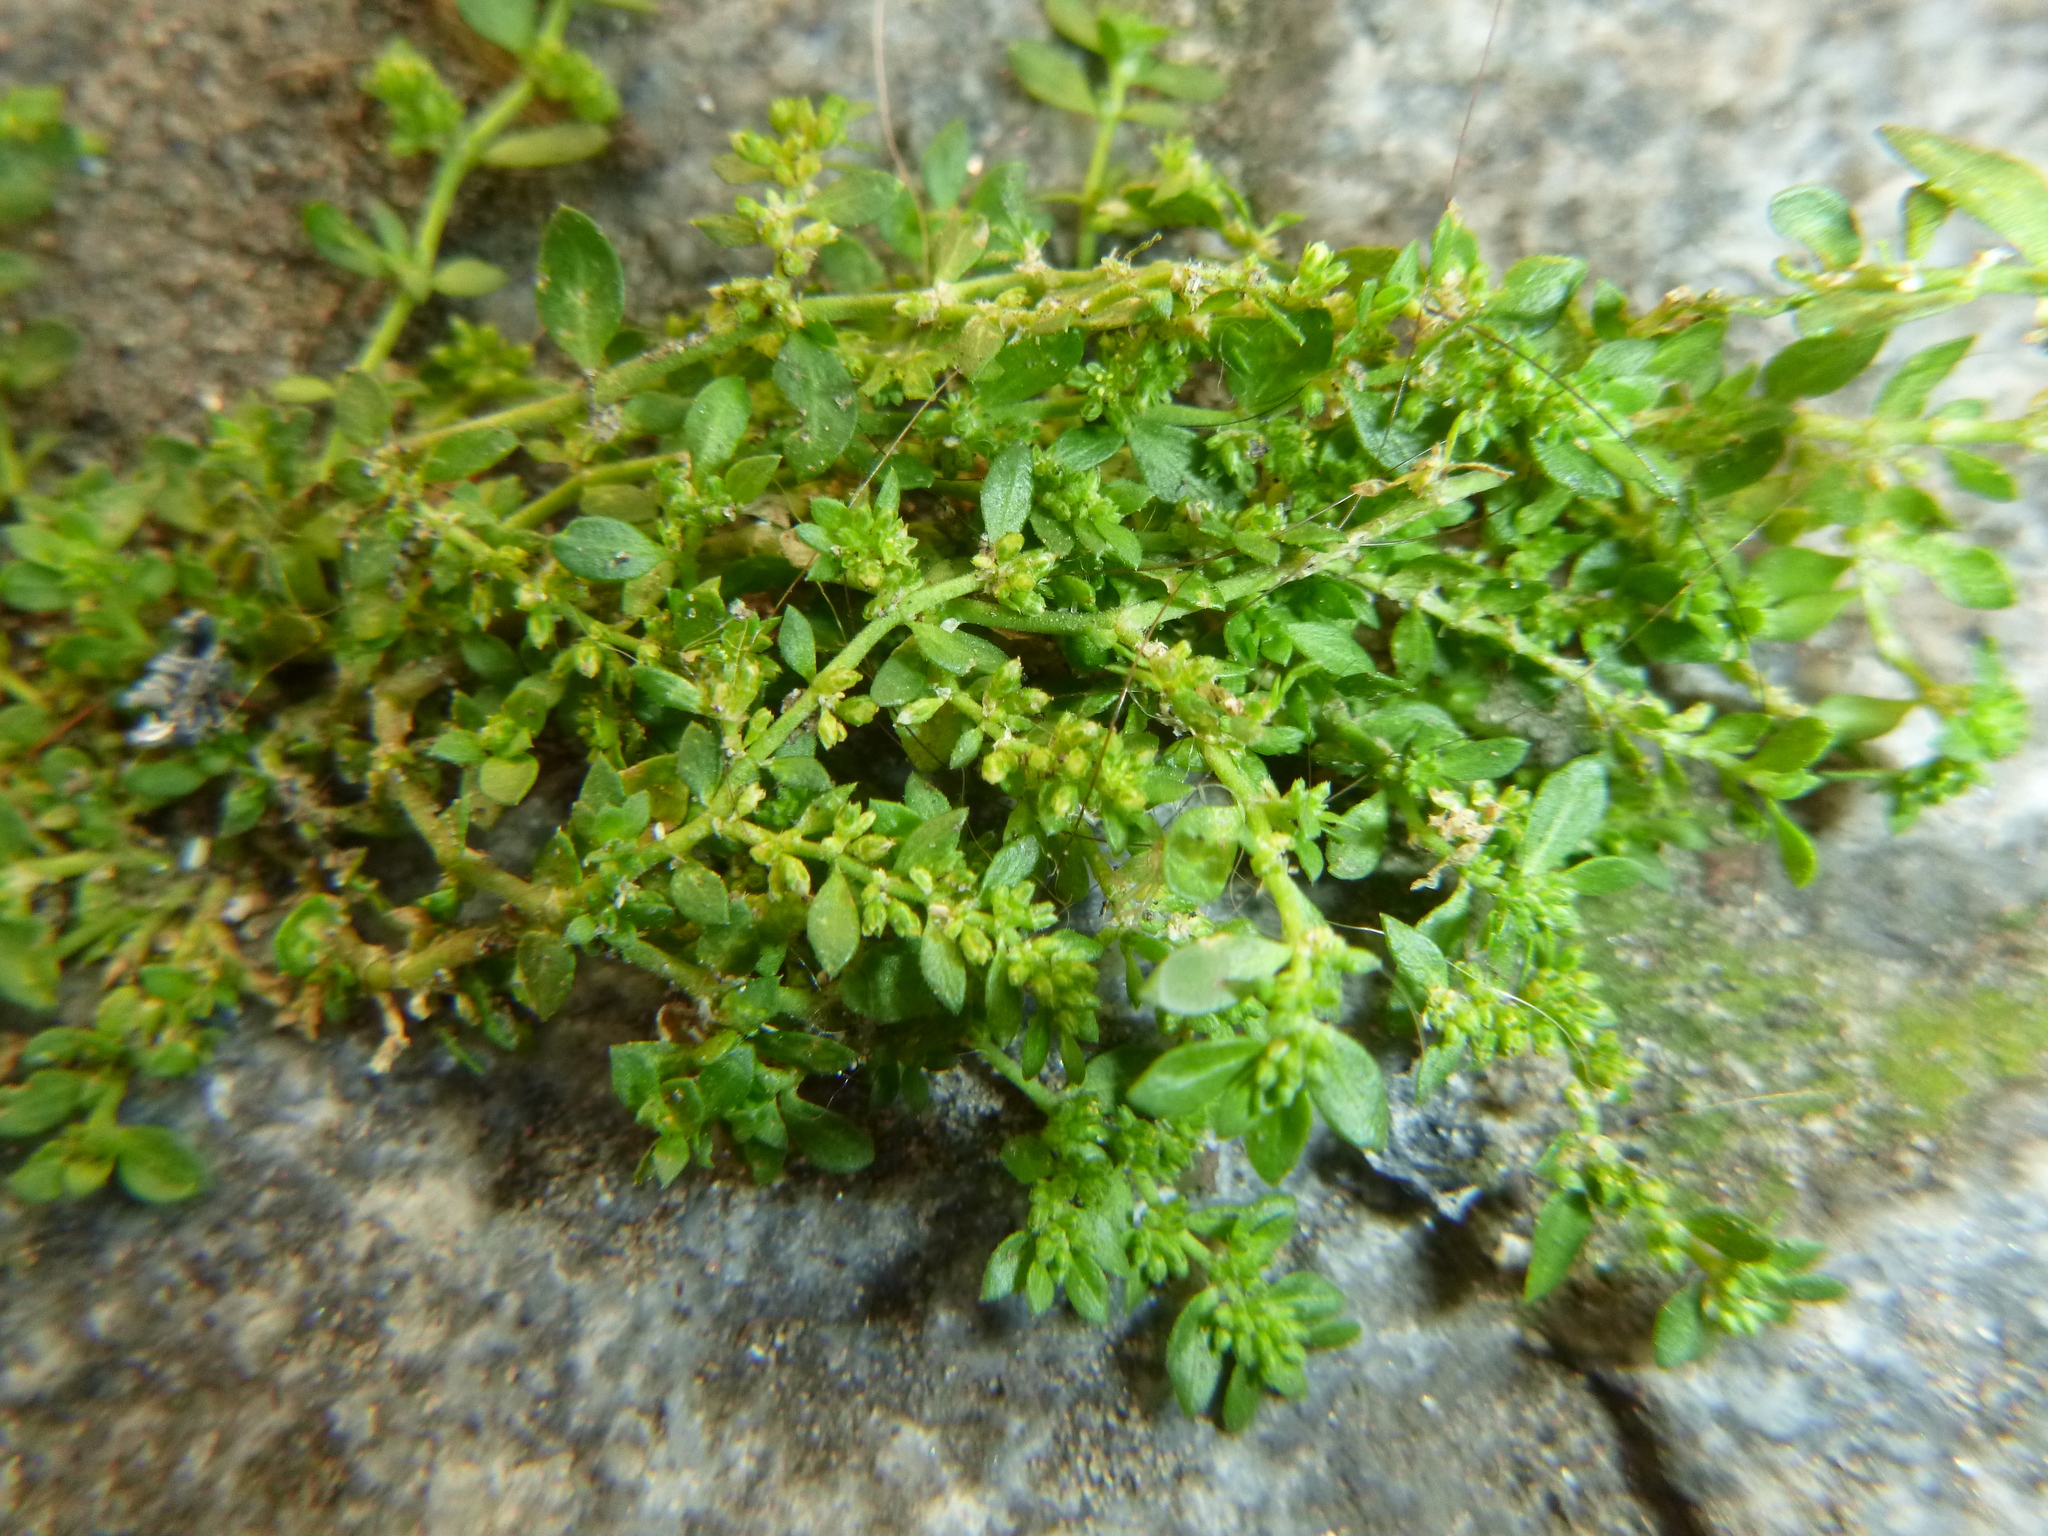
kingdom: Plantae
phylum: Tracheophyta
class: Magnoliopsida
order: Caryophyllales
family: Caryophyllaceae
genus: Herniaria
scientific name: Herniaria glabra
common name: Smooth rupturewort
